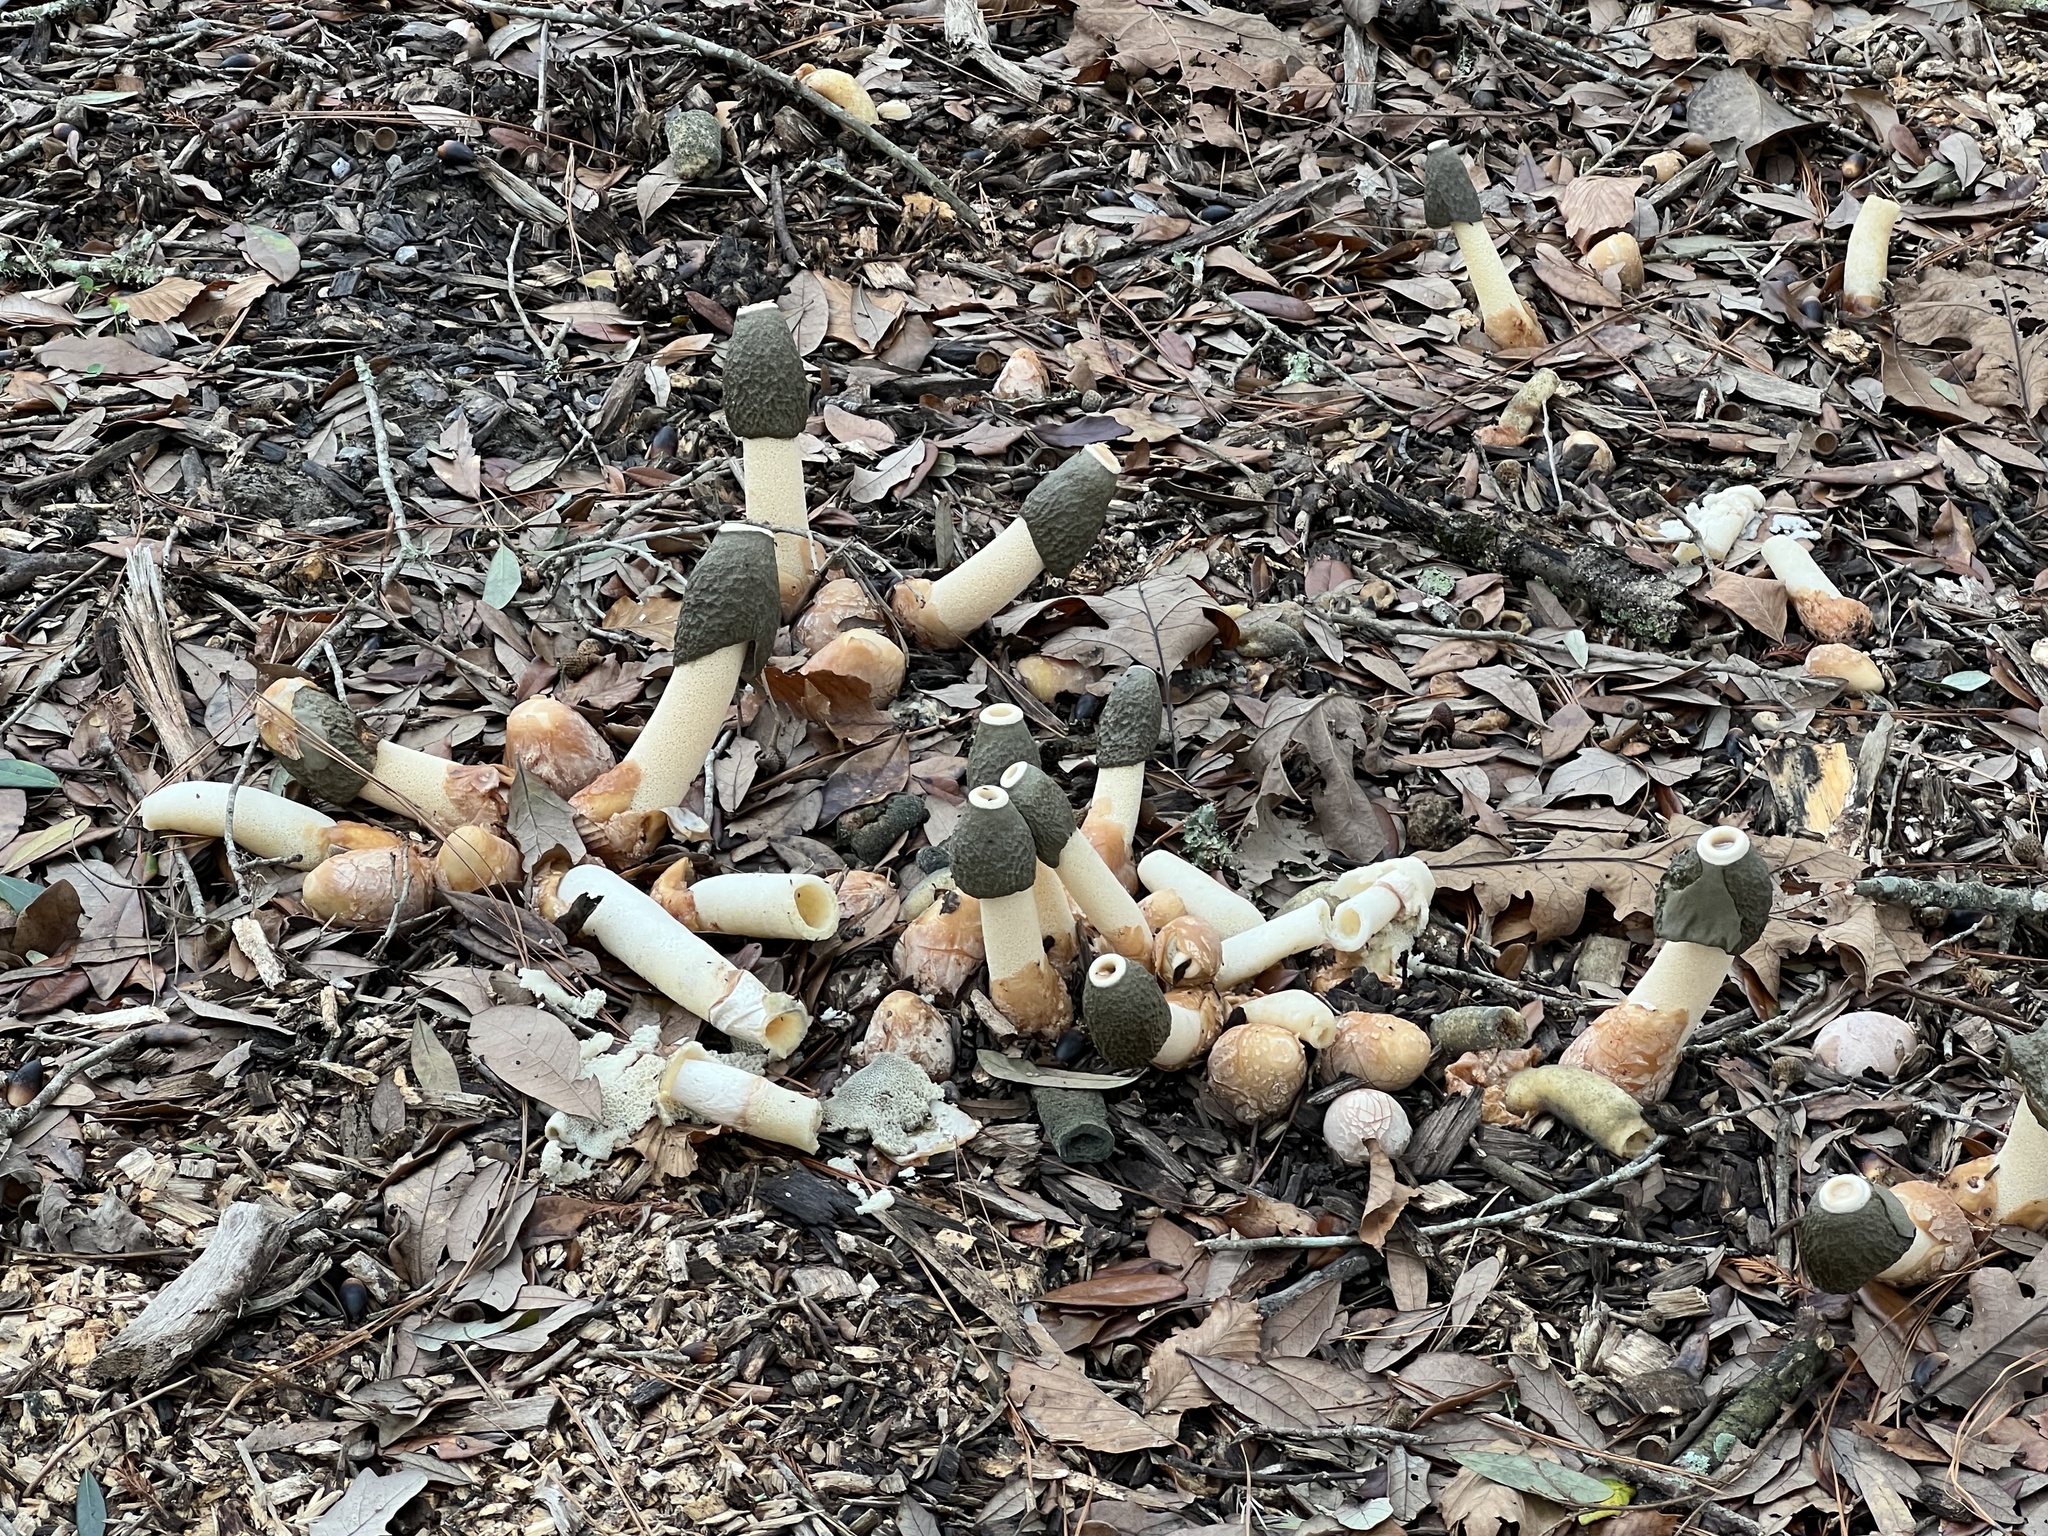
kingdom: Fungi
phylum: Basidiomycota
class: Agaricomycetes
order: Phallales
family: Phallaceae
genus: Phallus
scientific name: Phallus ravenelii
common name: Ravenel's stinkhorn
